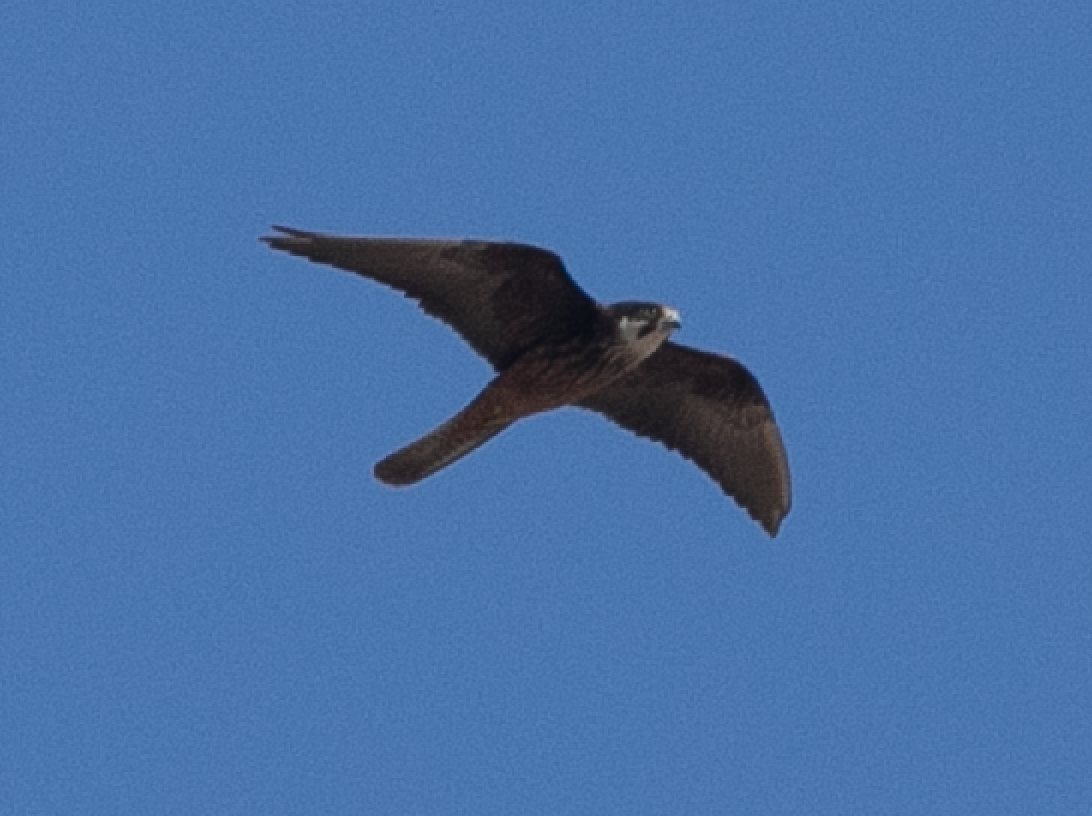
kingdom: Animalia
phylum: Chordata
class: Aves
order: Falconiformes
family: Falconidae
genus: Falco
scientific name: Falco eleonorae
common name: Eleonora's falcon
